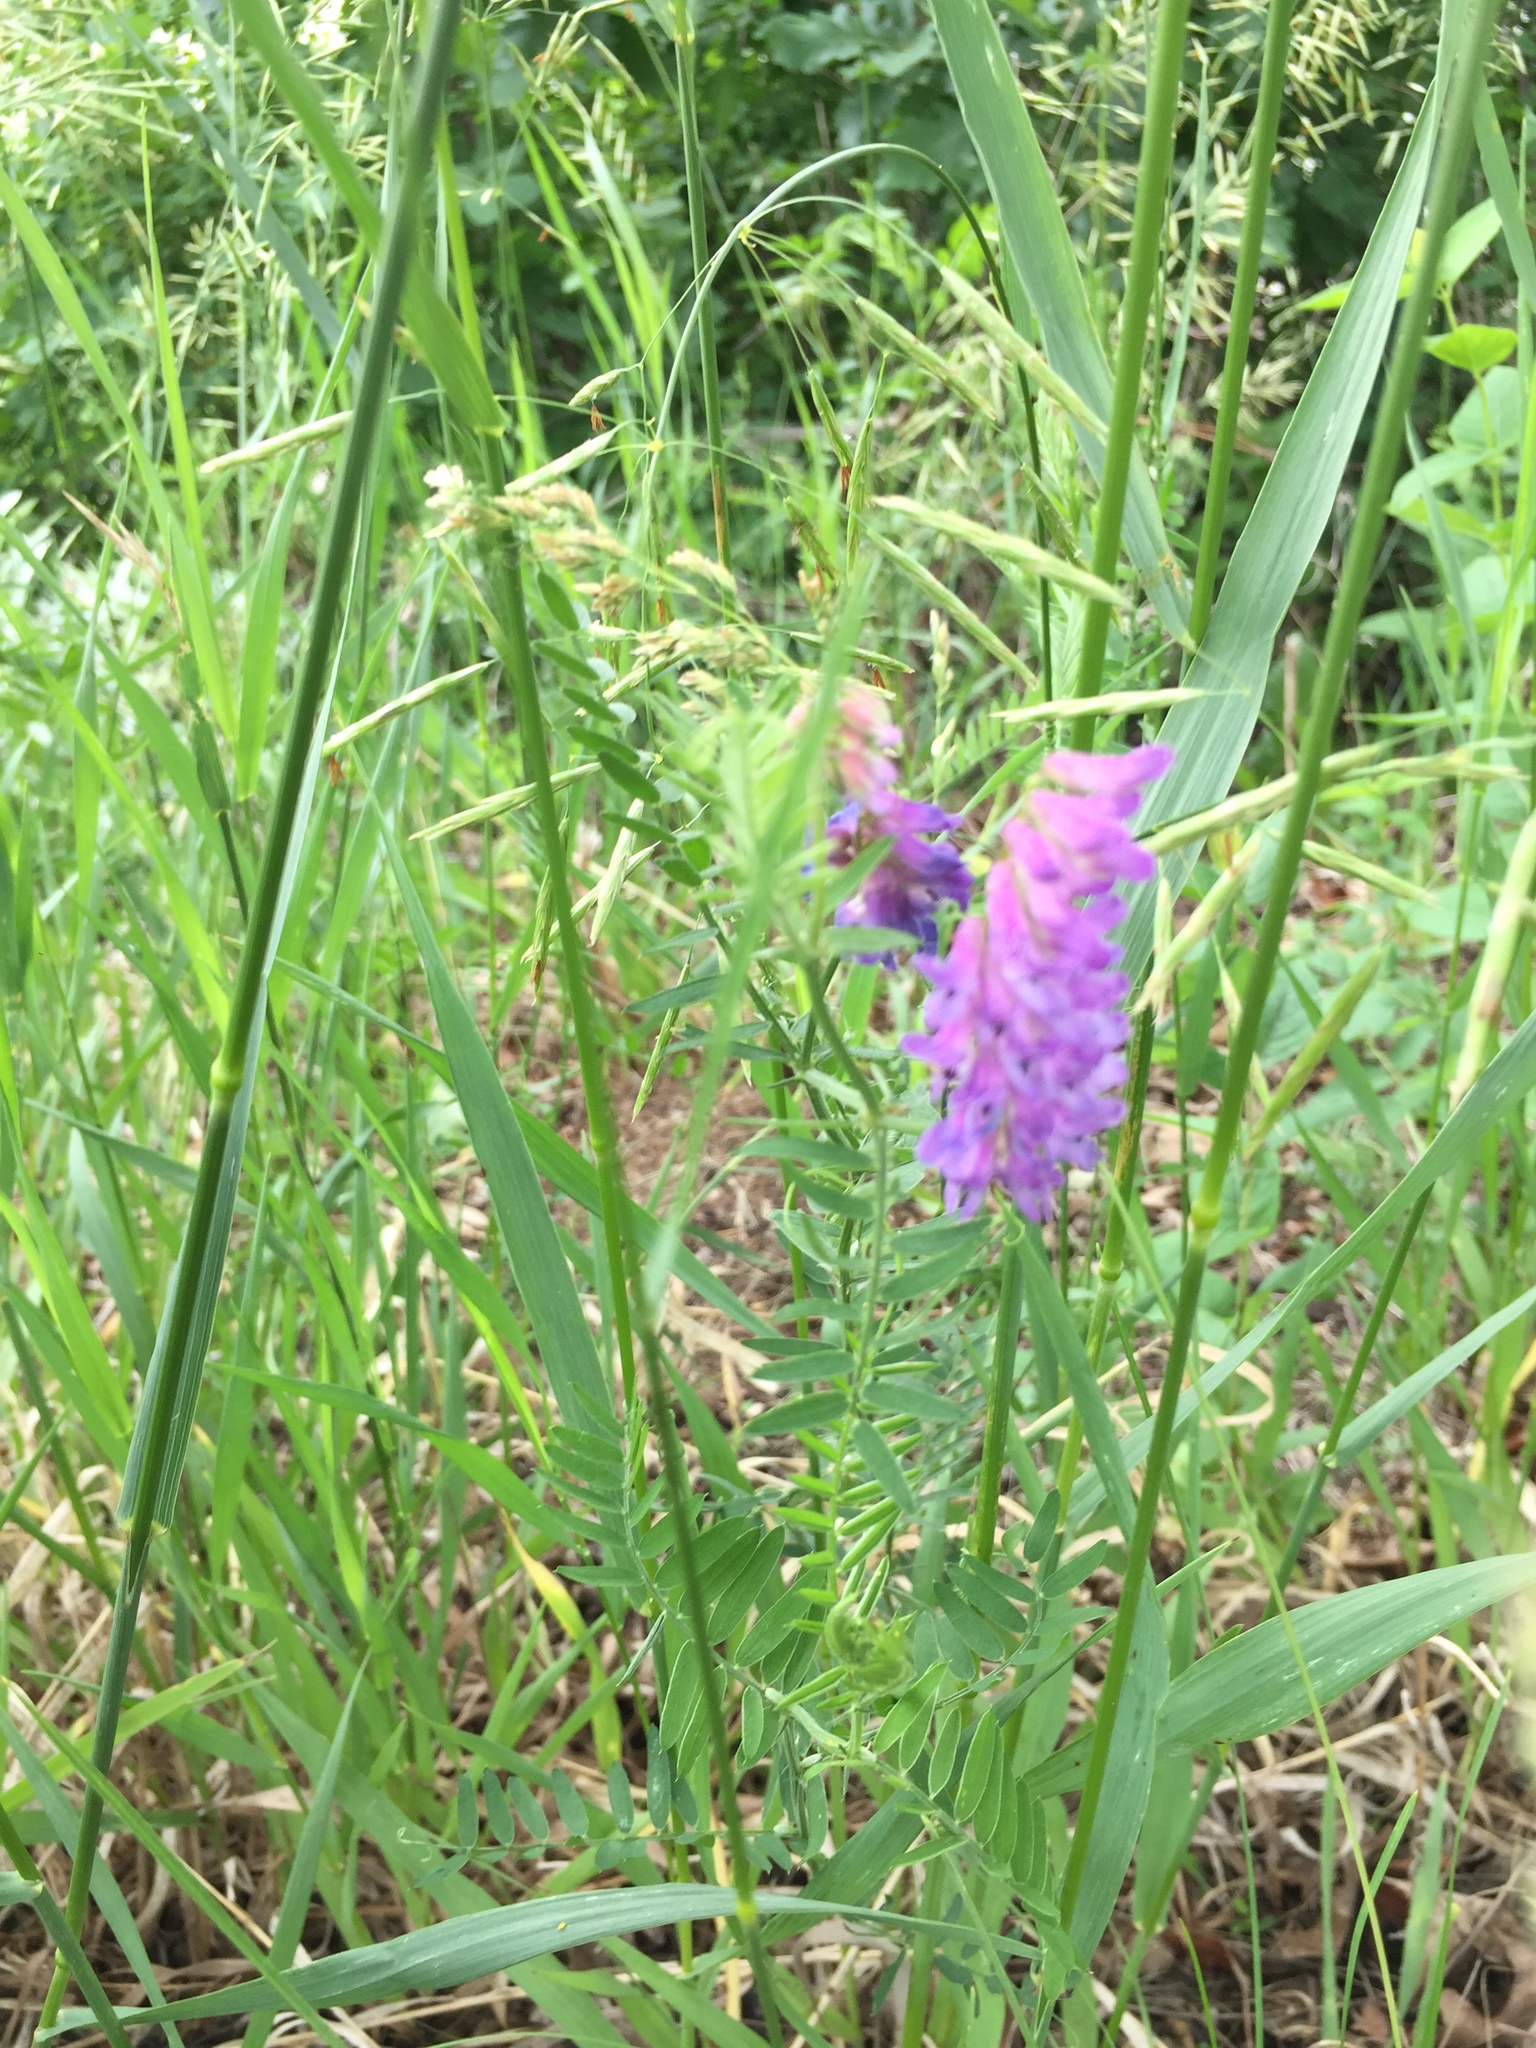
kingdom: Plantae
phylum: Tracheophyta
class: Magnoliopsida
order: Fabales
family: Fabaceae
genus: Vicia
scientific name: Vicia cracca
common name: Bird vetch
